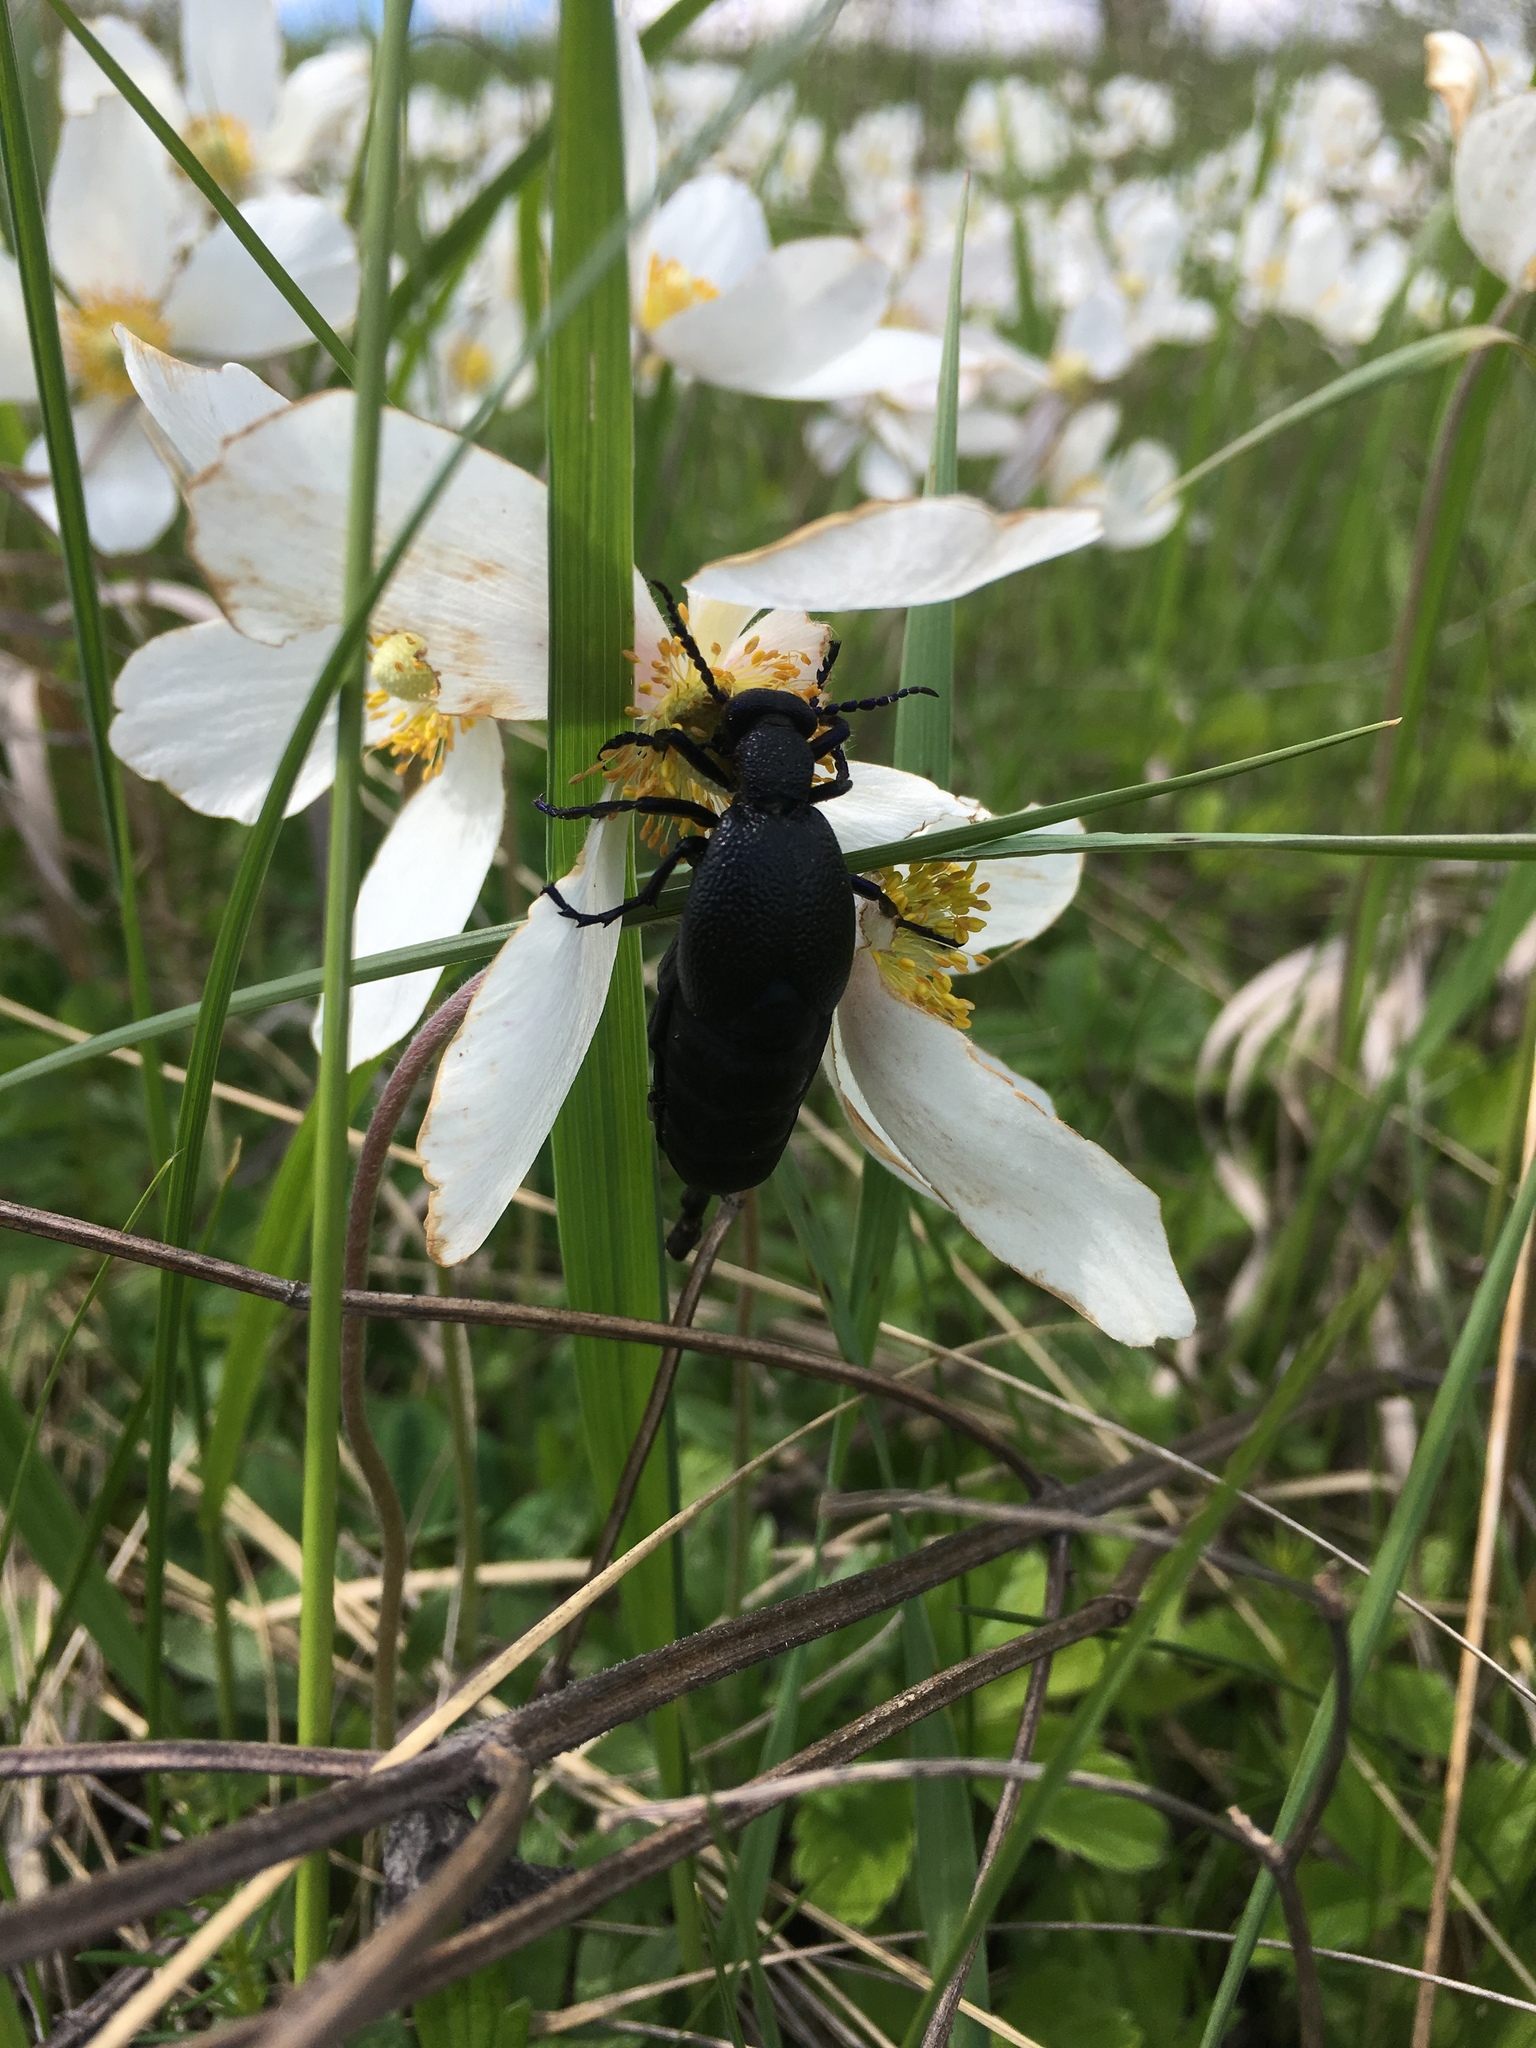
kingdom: Animalia
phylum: Arthropoda
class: Insecta
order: Coleoptera
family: Meloidae
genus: Meloe
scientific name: Meloe proscarabaeus
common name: Black oil-beetle
